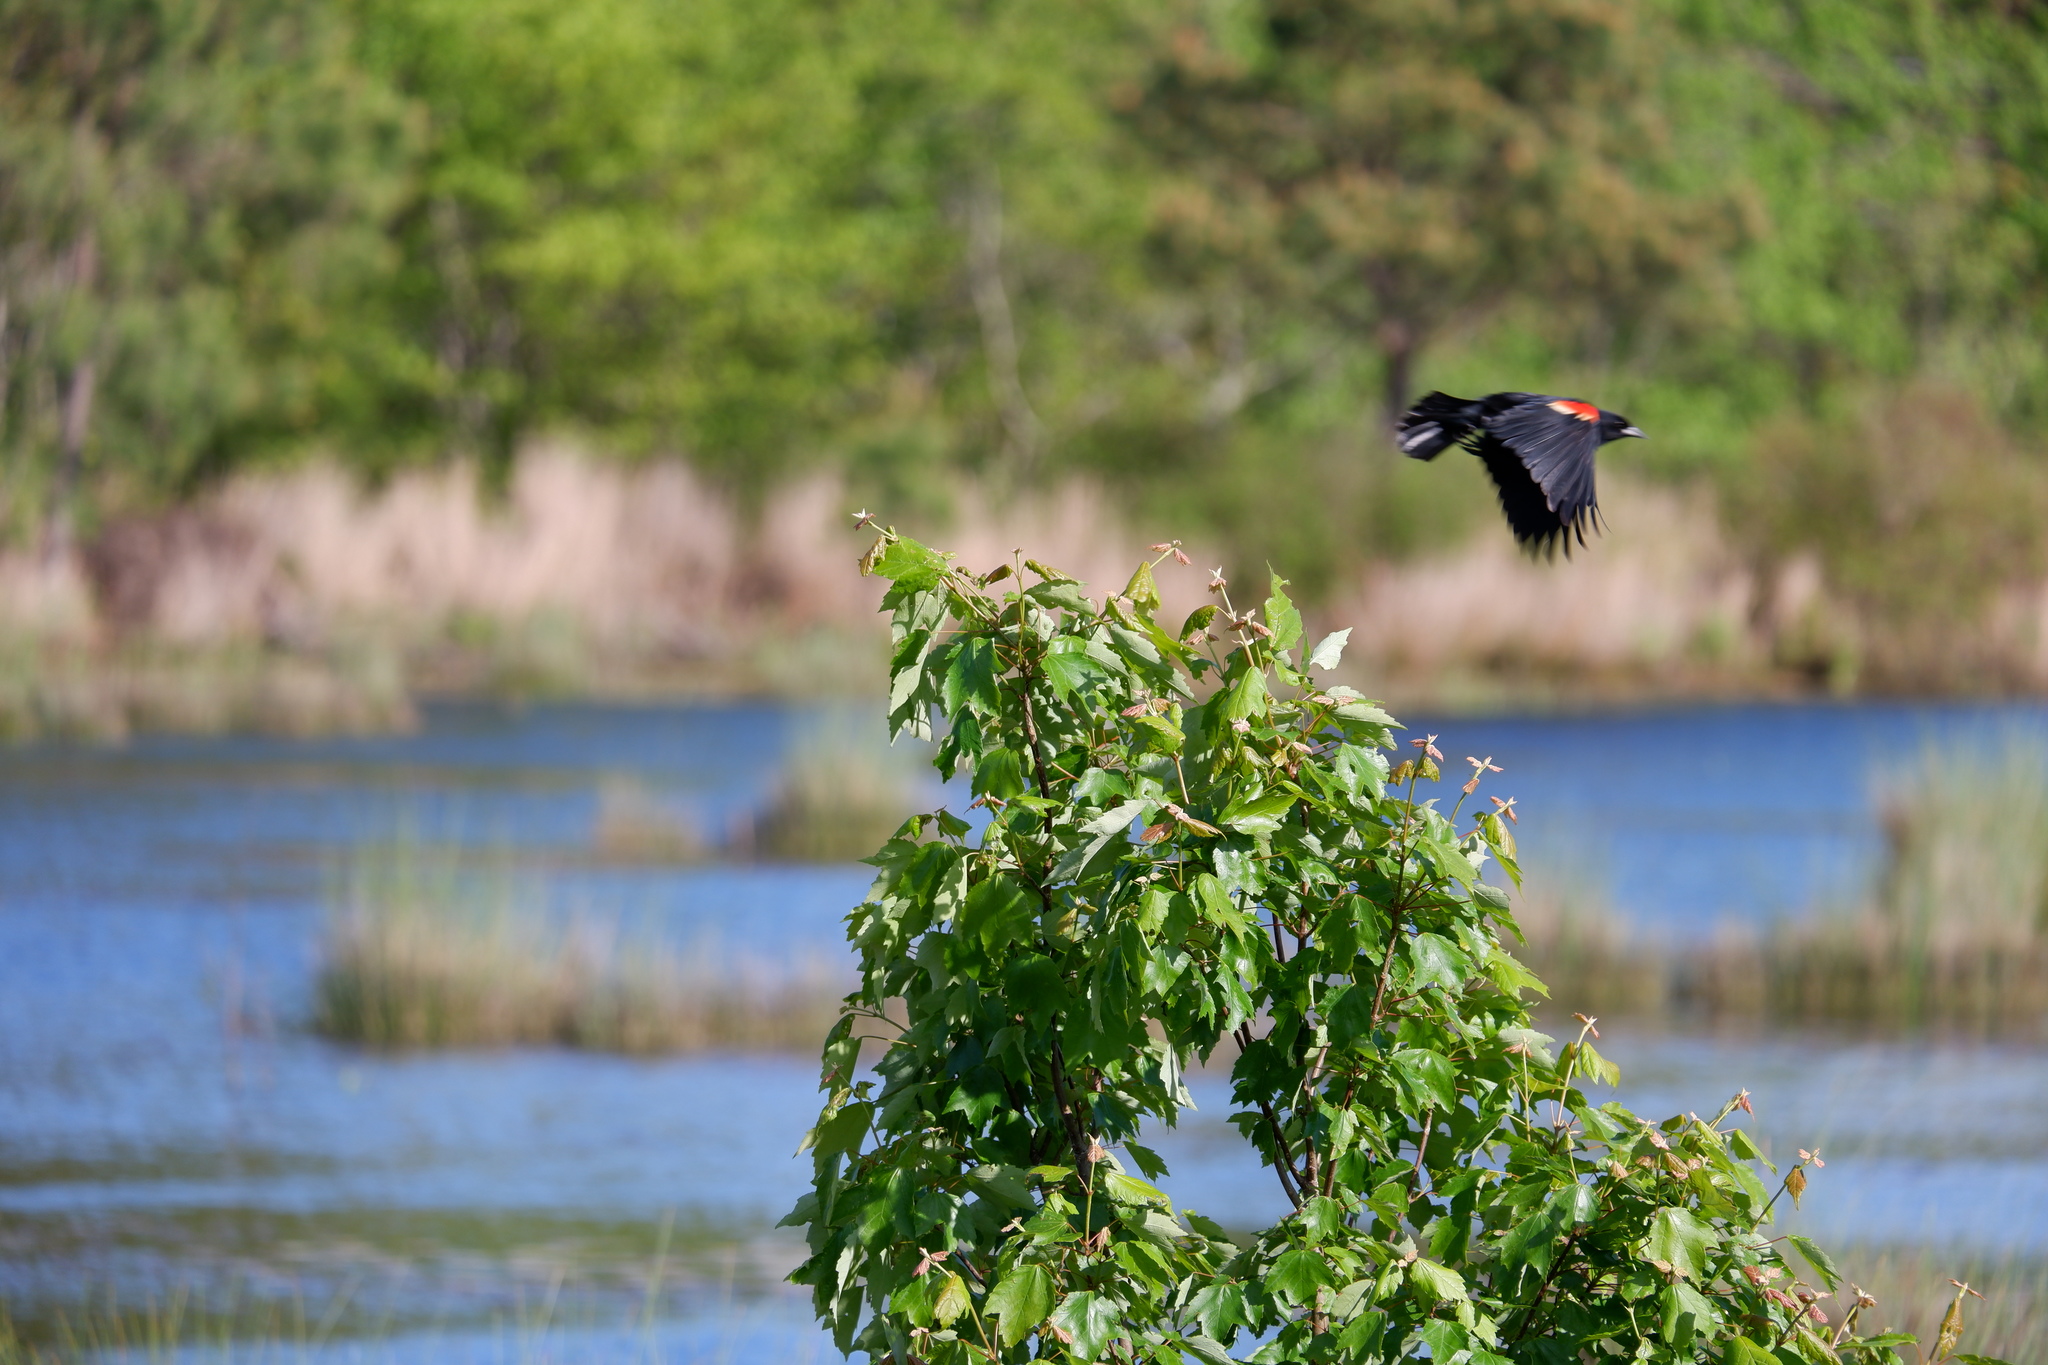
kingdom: Animalia
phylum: Chordata
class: Aves
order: Passeriformes
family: Icteridae
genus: Agelaius
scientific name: Agelaius phoeniceus
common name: Red-winged blackbird
